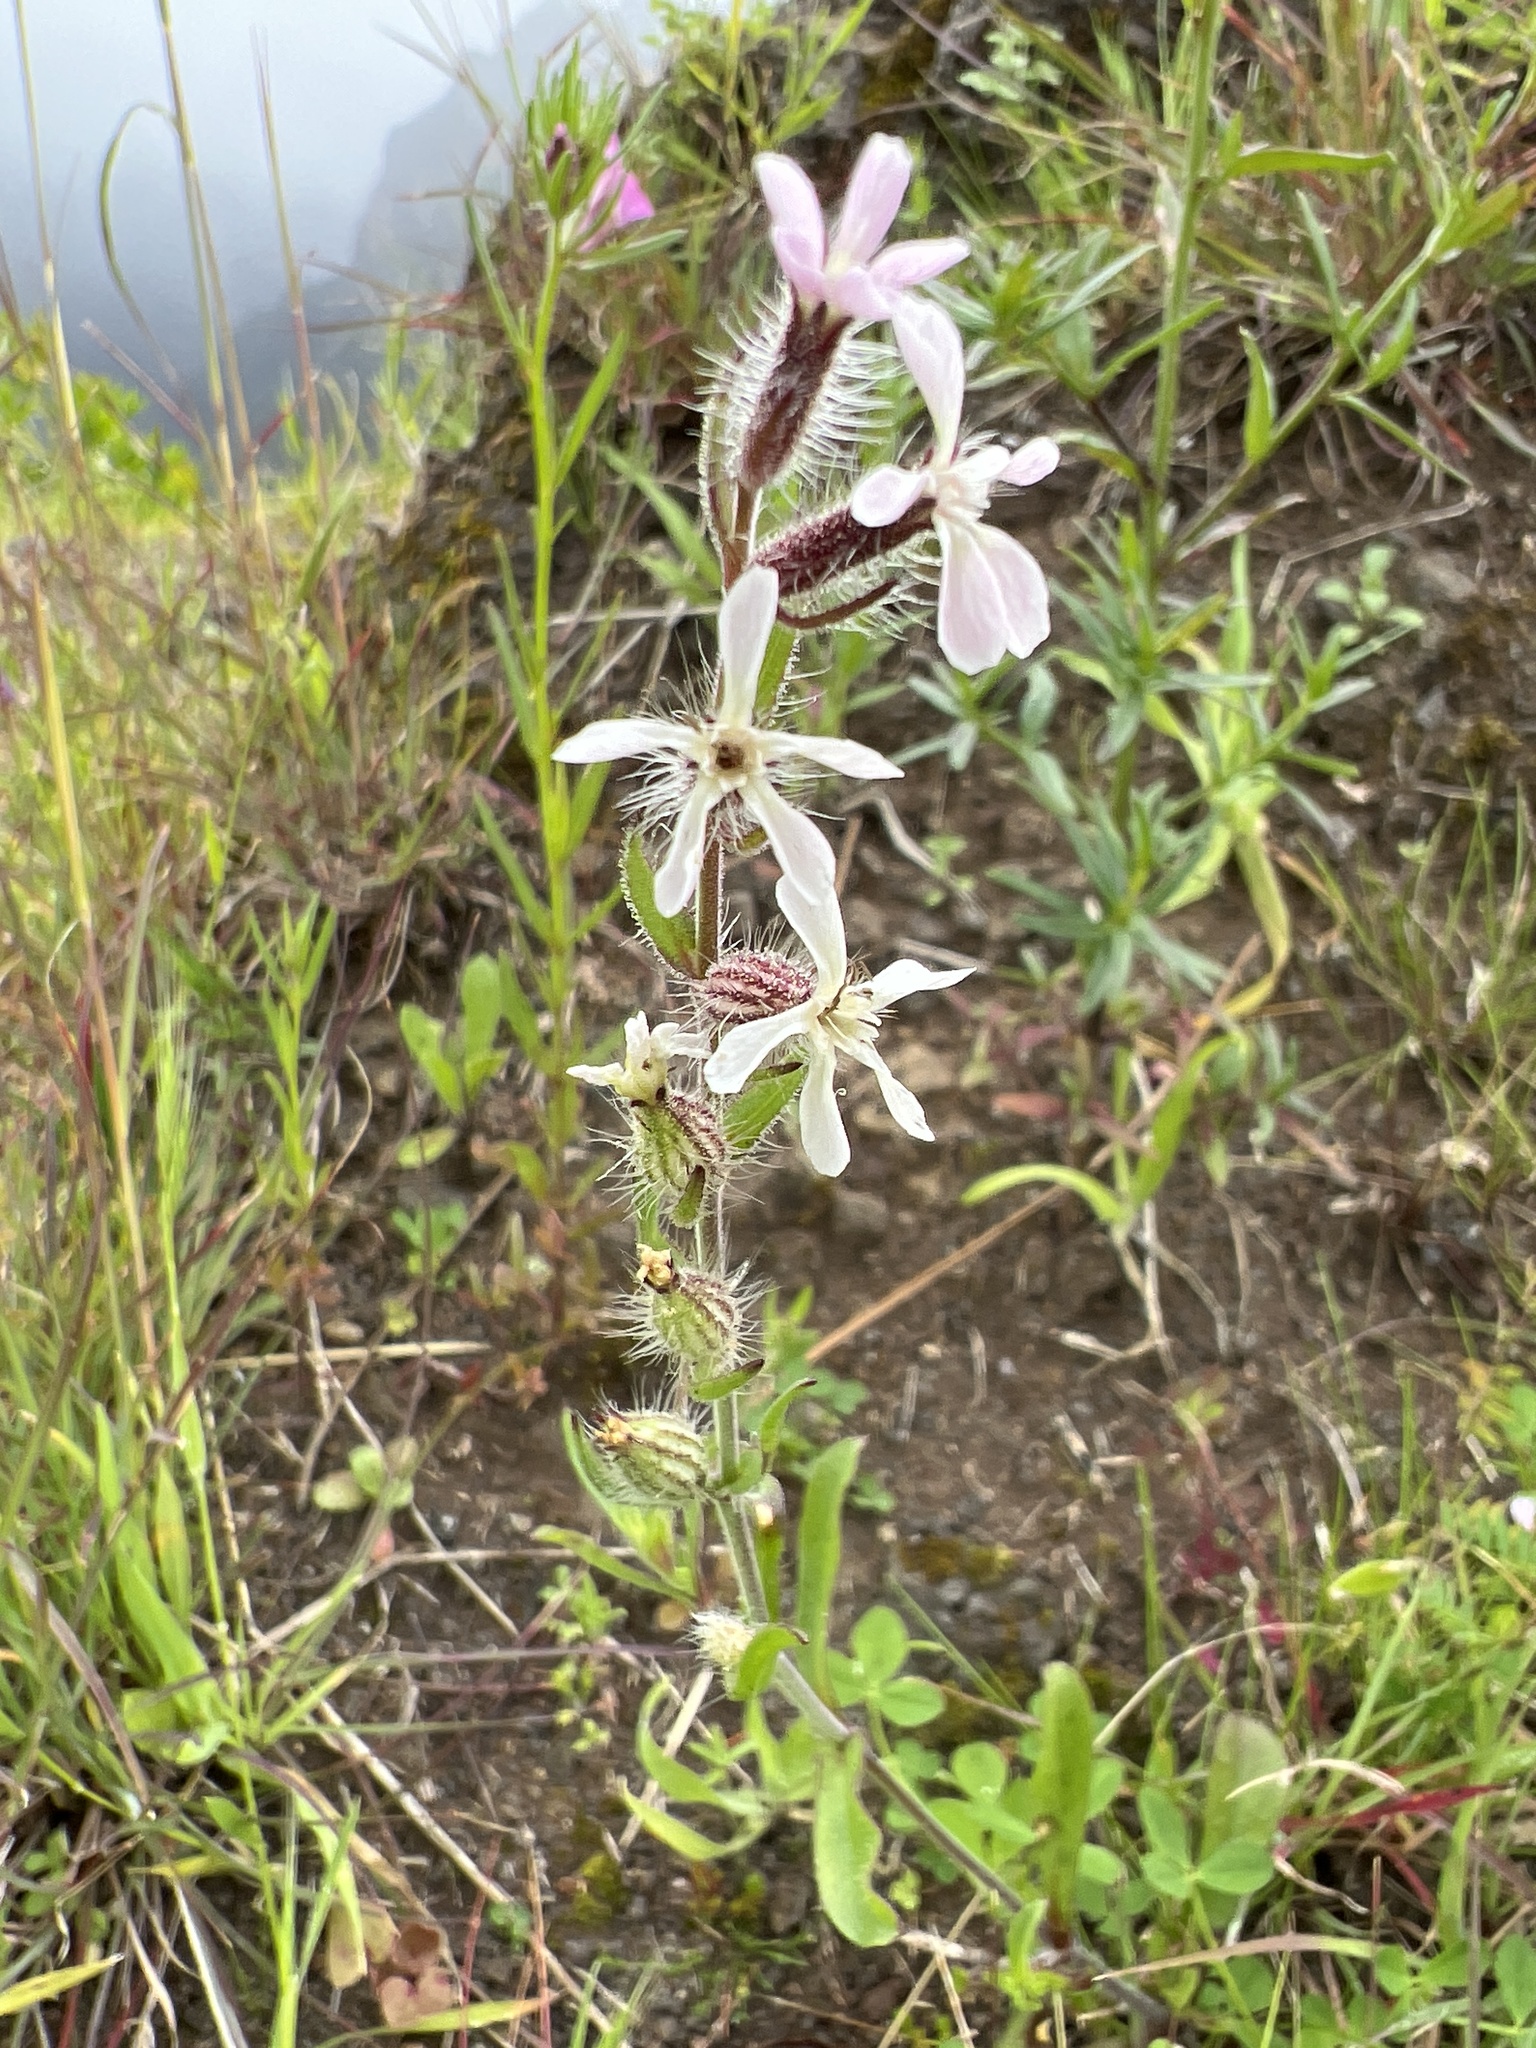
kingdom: Plantae
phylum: Tracheophyta
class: Magnoliopsida
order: Caryophyllales
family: Caryophyllaceae
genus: Silene
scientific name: Silene gallica
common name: Small-flowered catchfly
